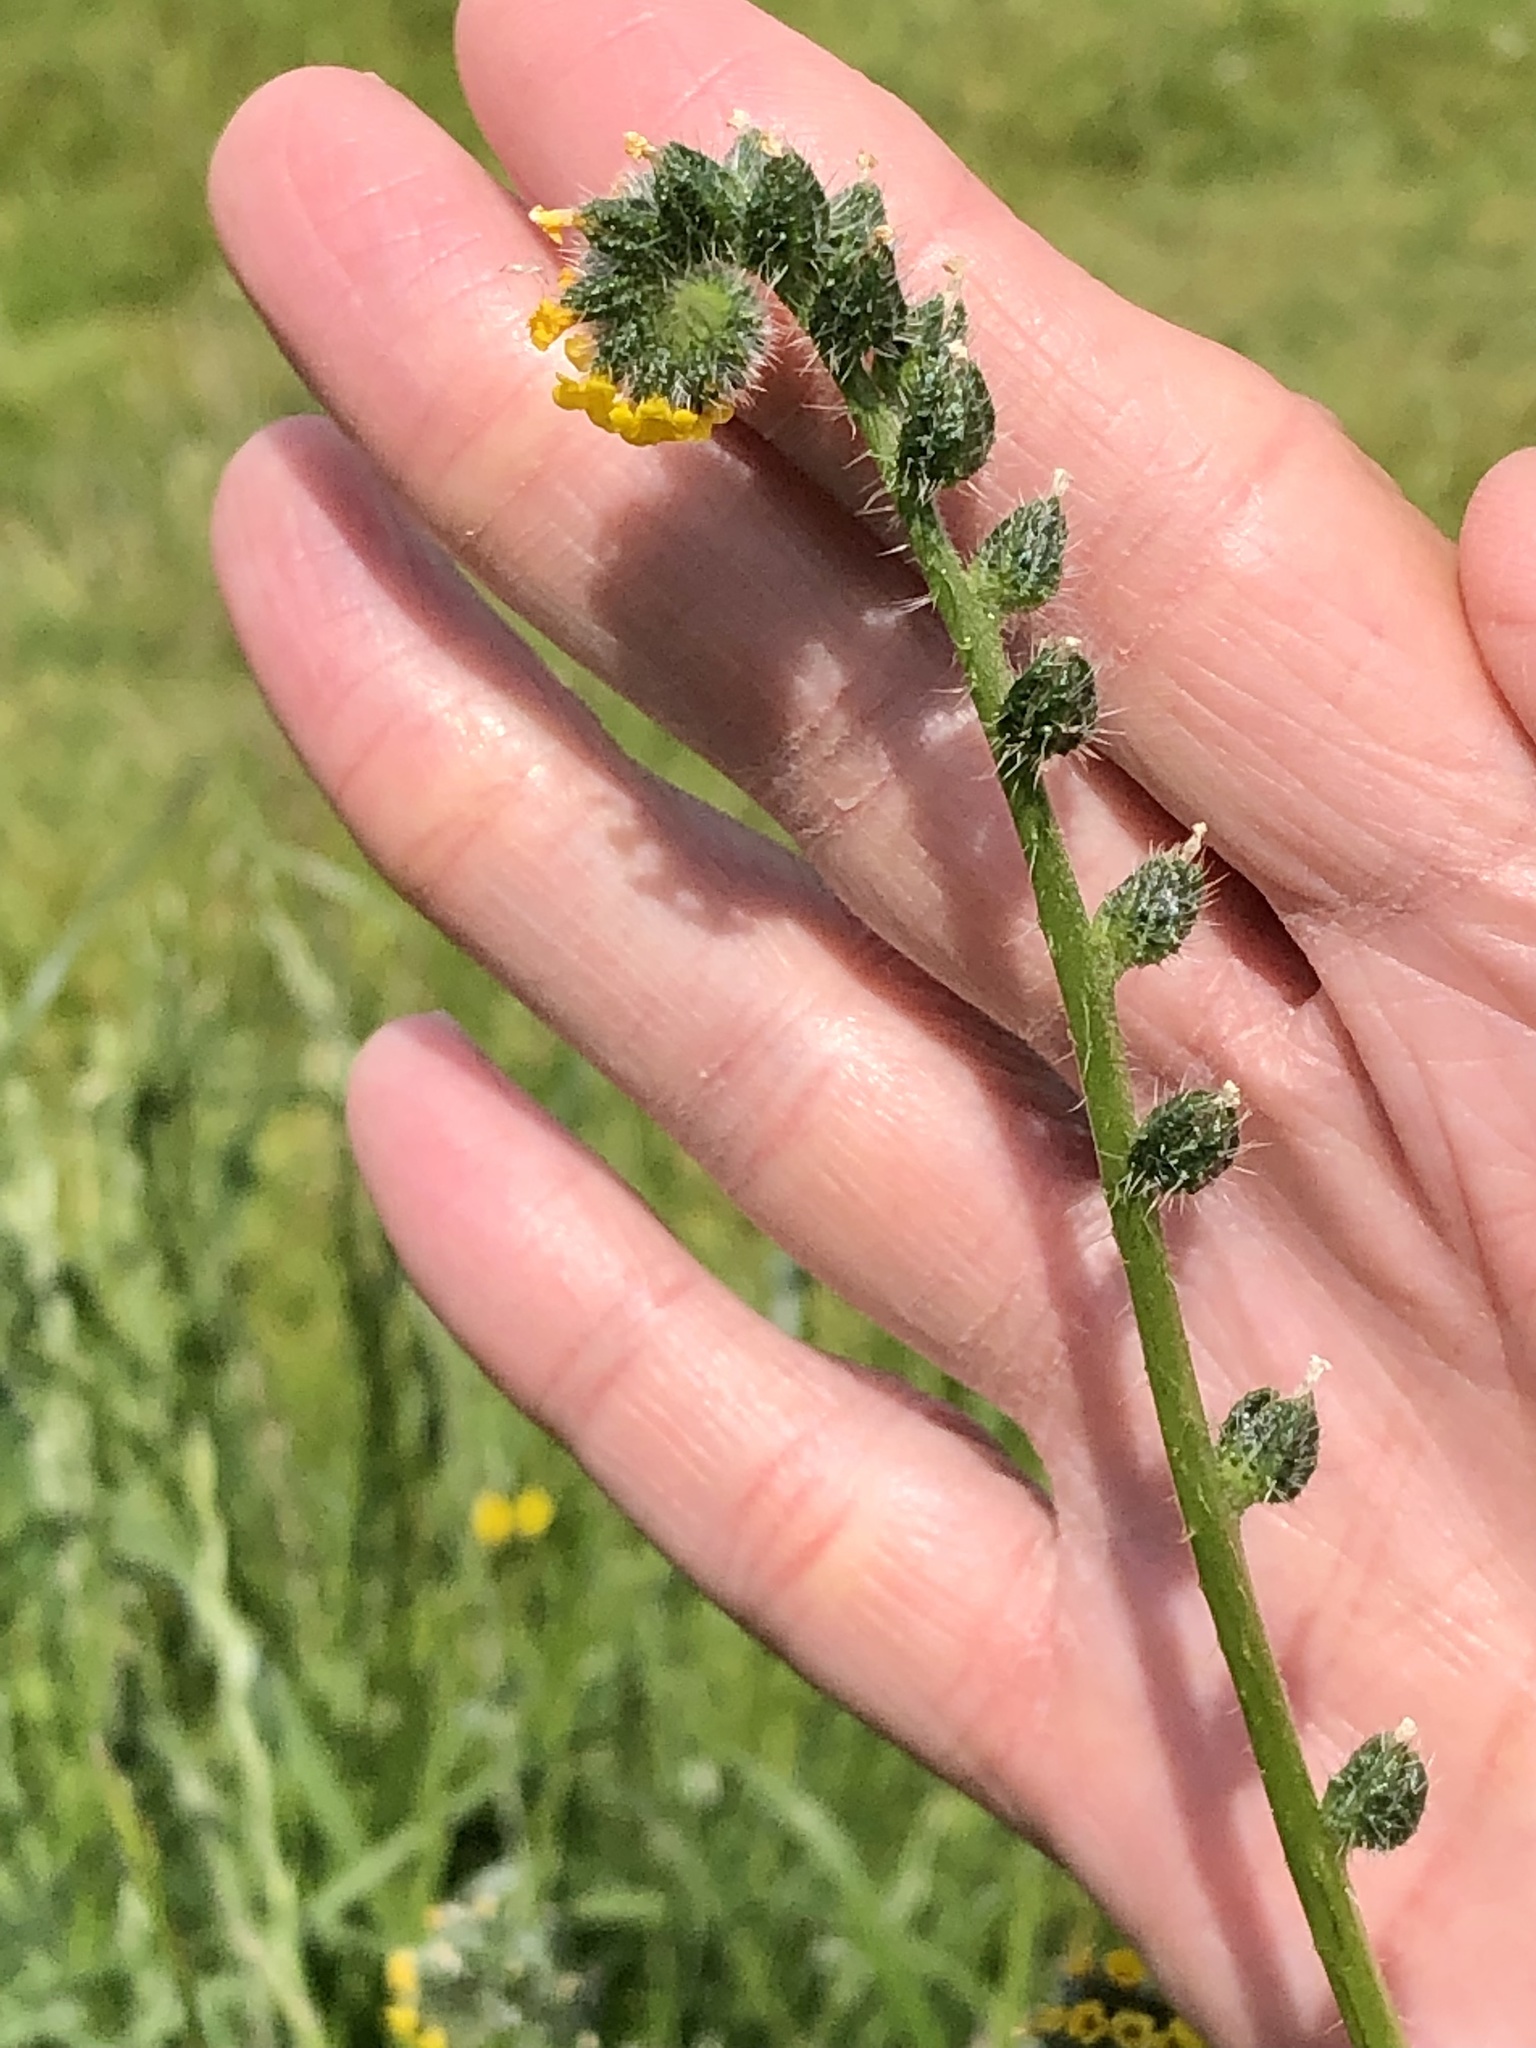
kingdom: Plantae
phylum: Tracheophyta
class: Magnoliopsida
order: Boraginales
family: Boraginaceae
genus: Amsinckia
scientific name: Amsinckia menziesii
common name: Menzies' fiddleneck
